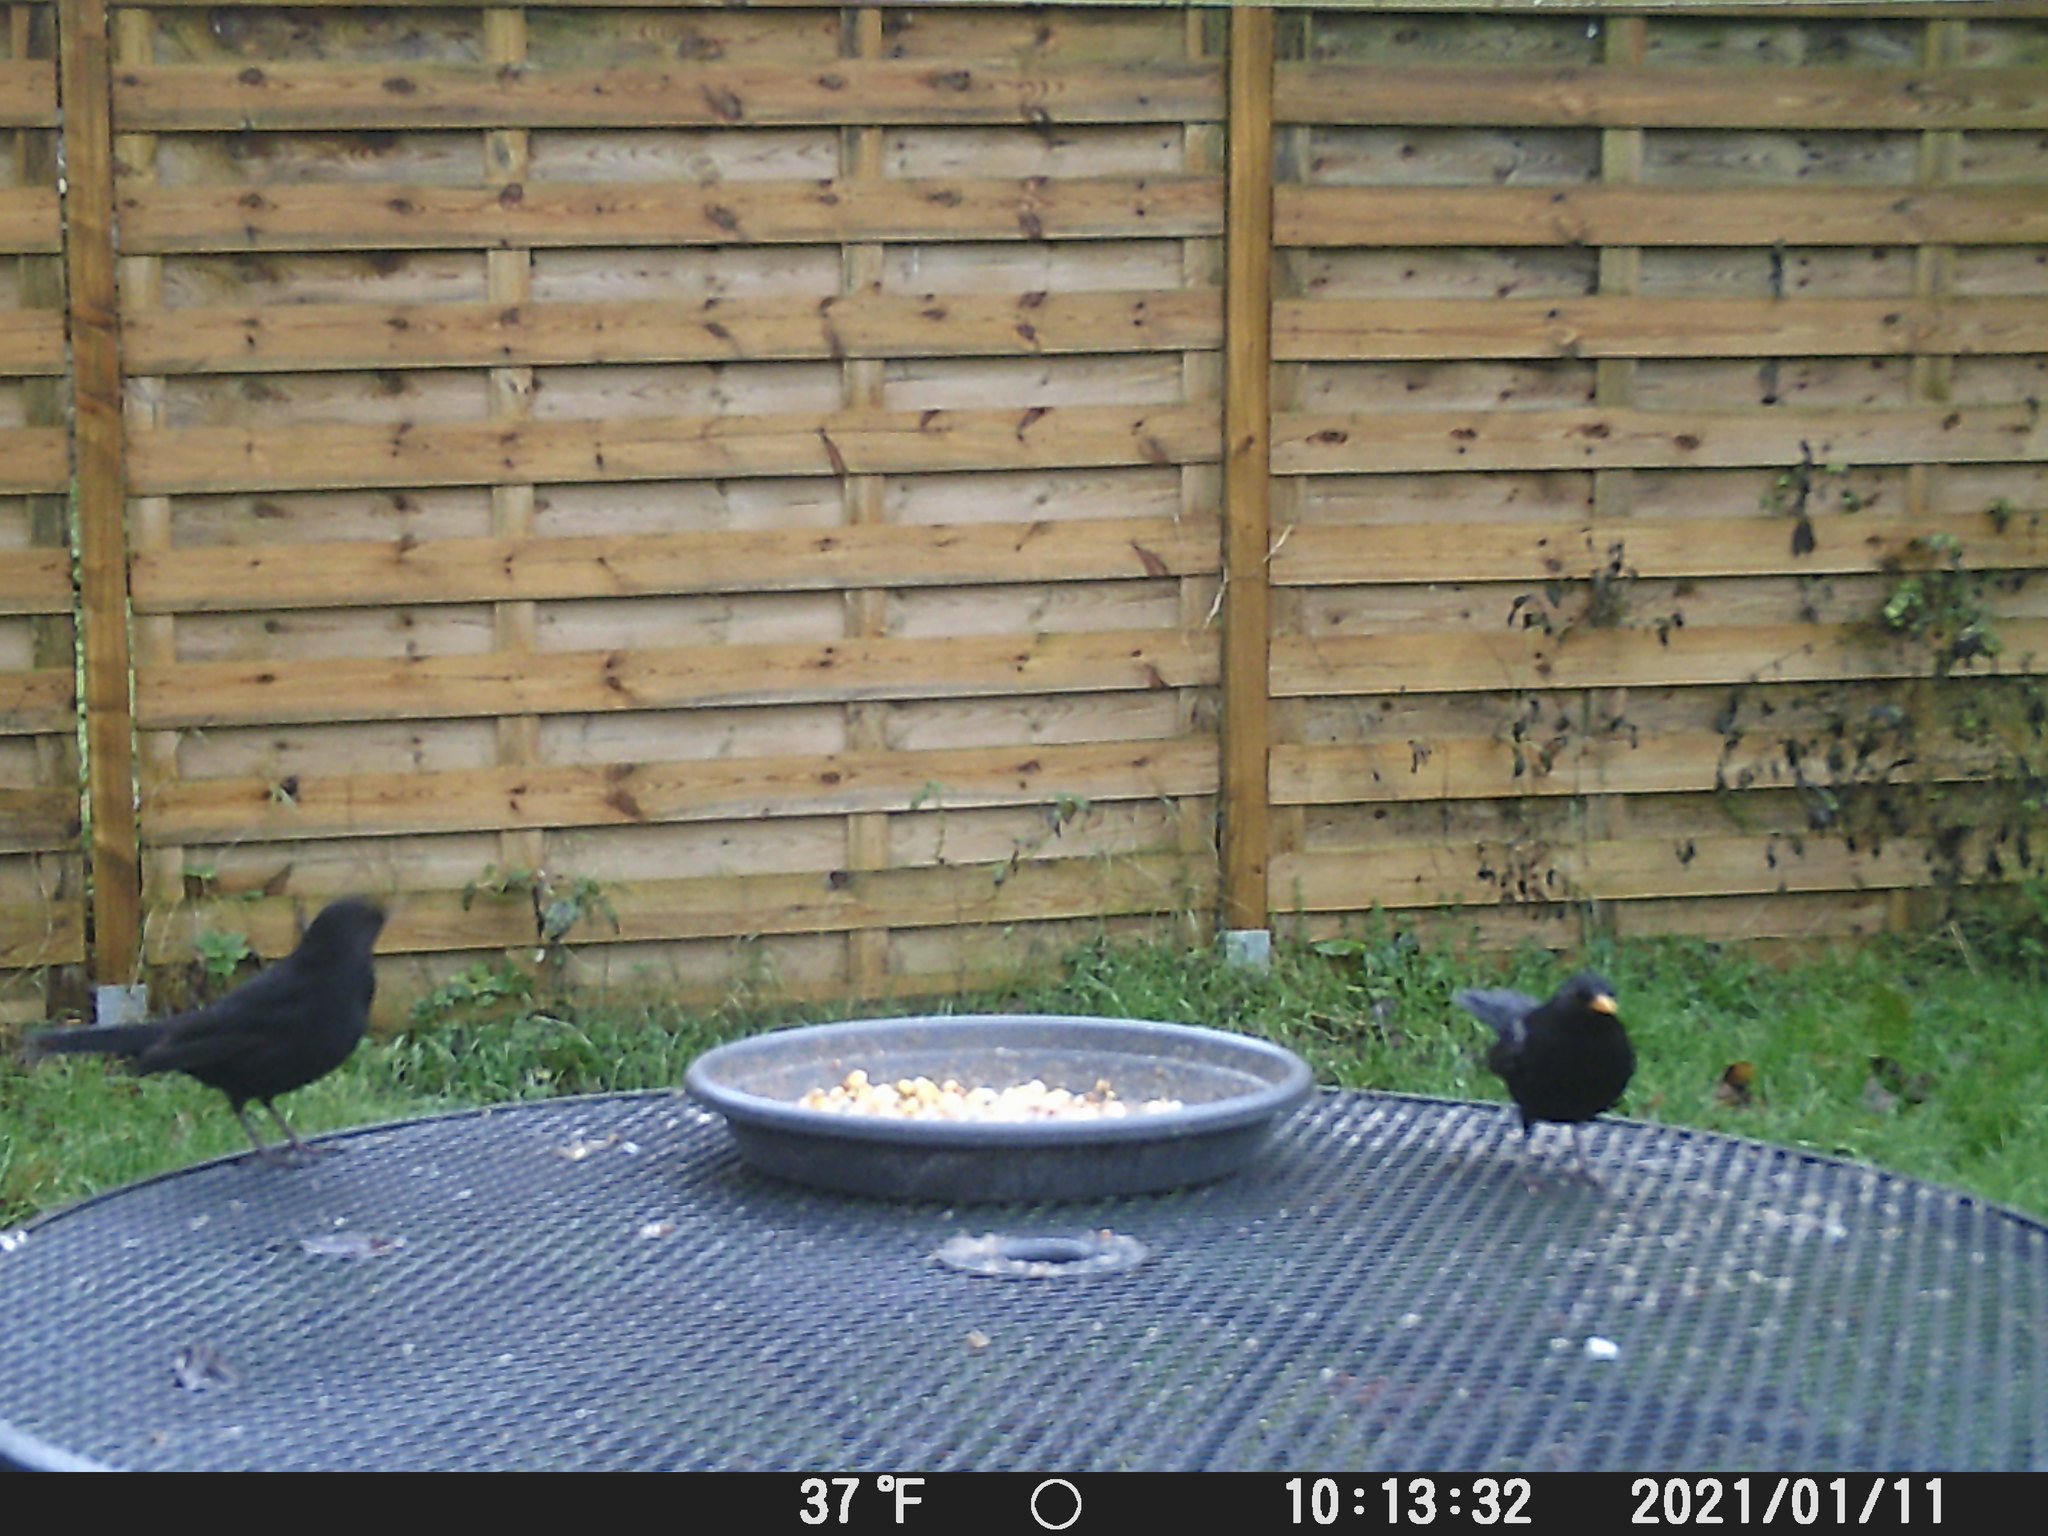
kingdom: Animalia
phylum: Chordata
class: Aves
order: Passeriformes
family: Turdidae
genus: Turdus
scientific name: Turdus merula
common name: Common blackbird
